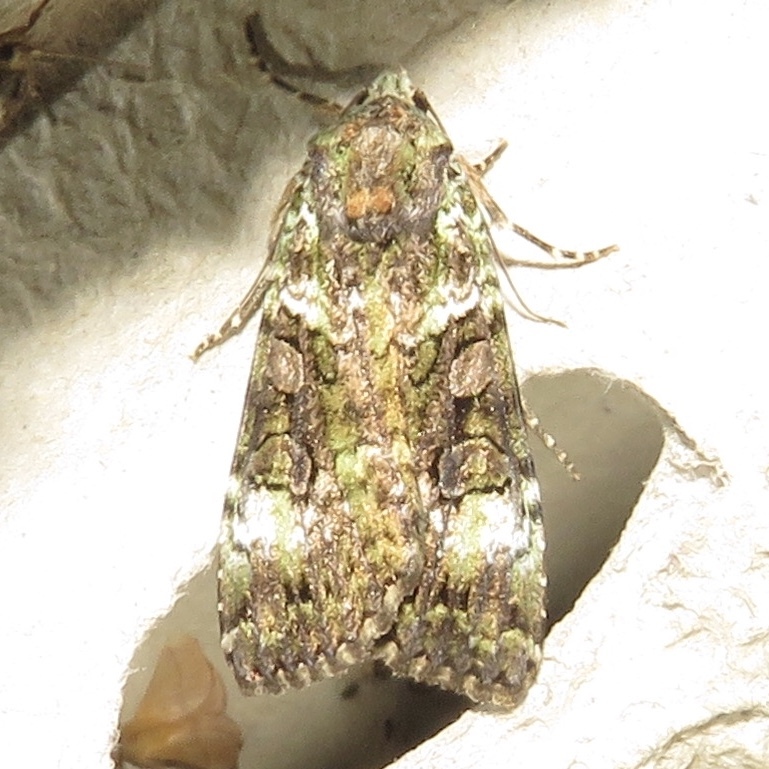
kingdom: Animalia
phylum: Arthropoda
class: Insecta
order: Lepidoptera
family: Noctuidae
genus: Anaplectoides
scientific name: Anaplectoides prasina
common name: Green arches
